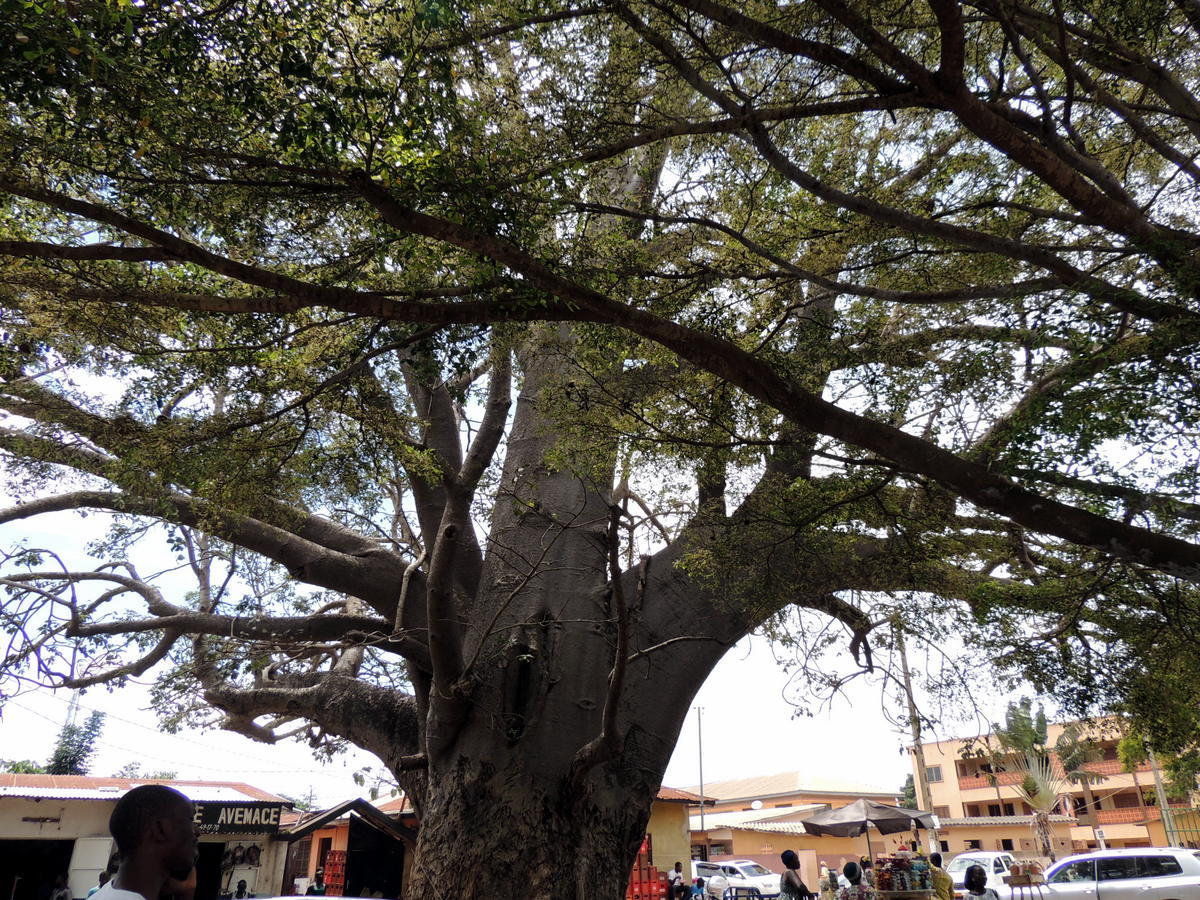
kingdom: Plantae
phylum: Tracheophyta
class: Magnoliopsida
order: Malvales
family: Malvaceae
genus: Adansonia
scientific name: Adansonia digitata
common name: Dead-rat-tree
